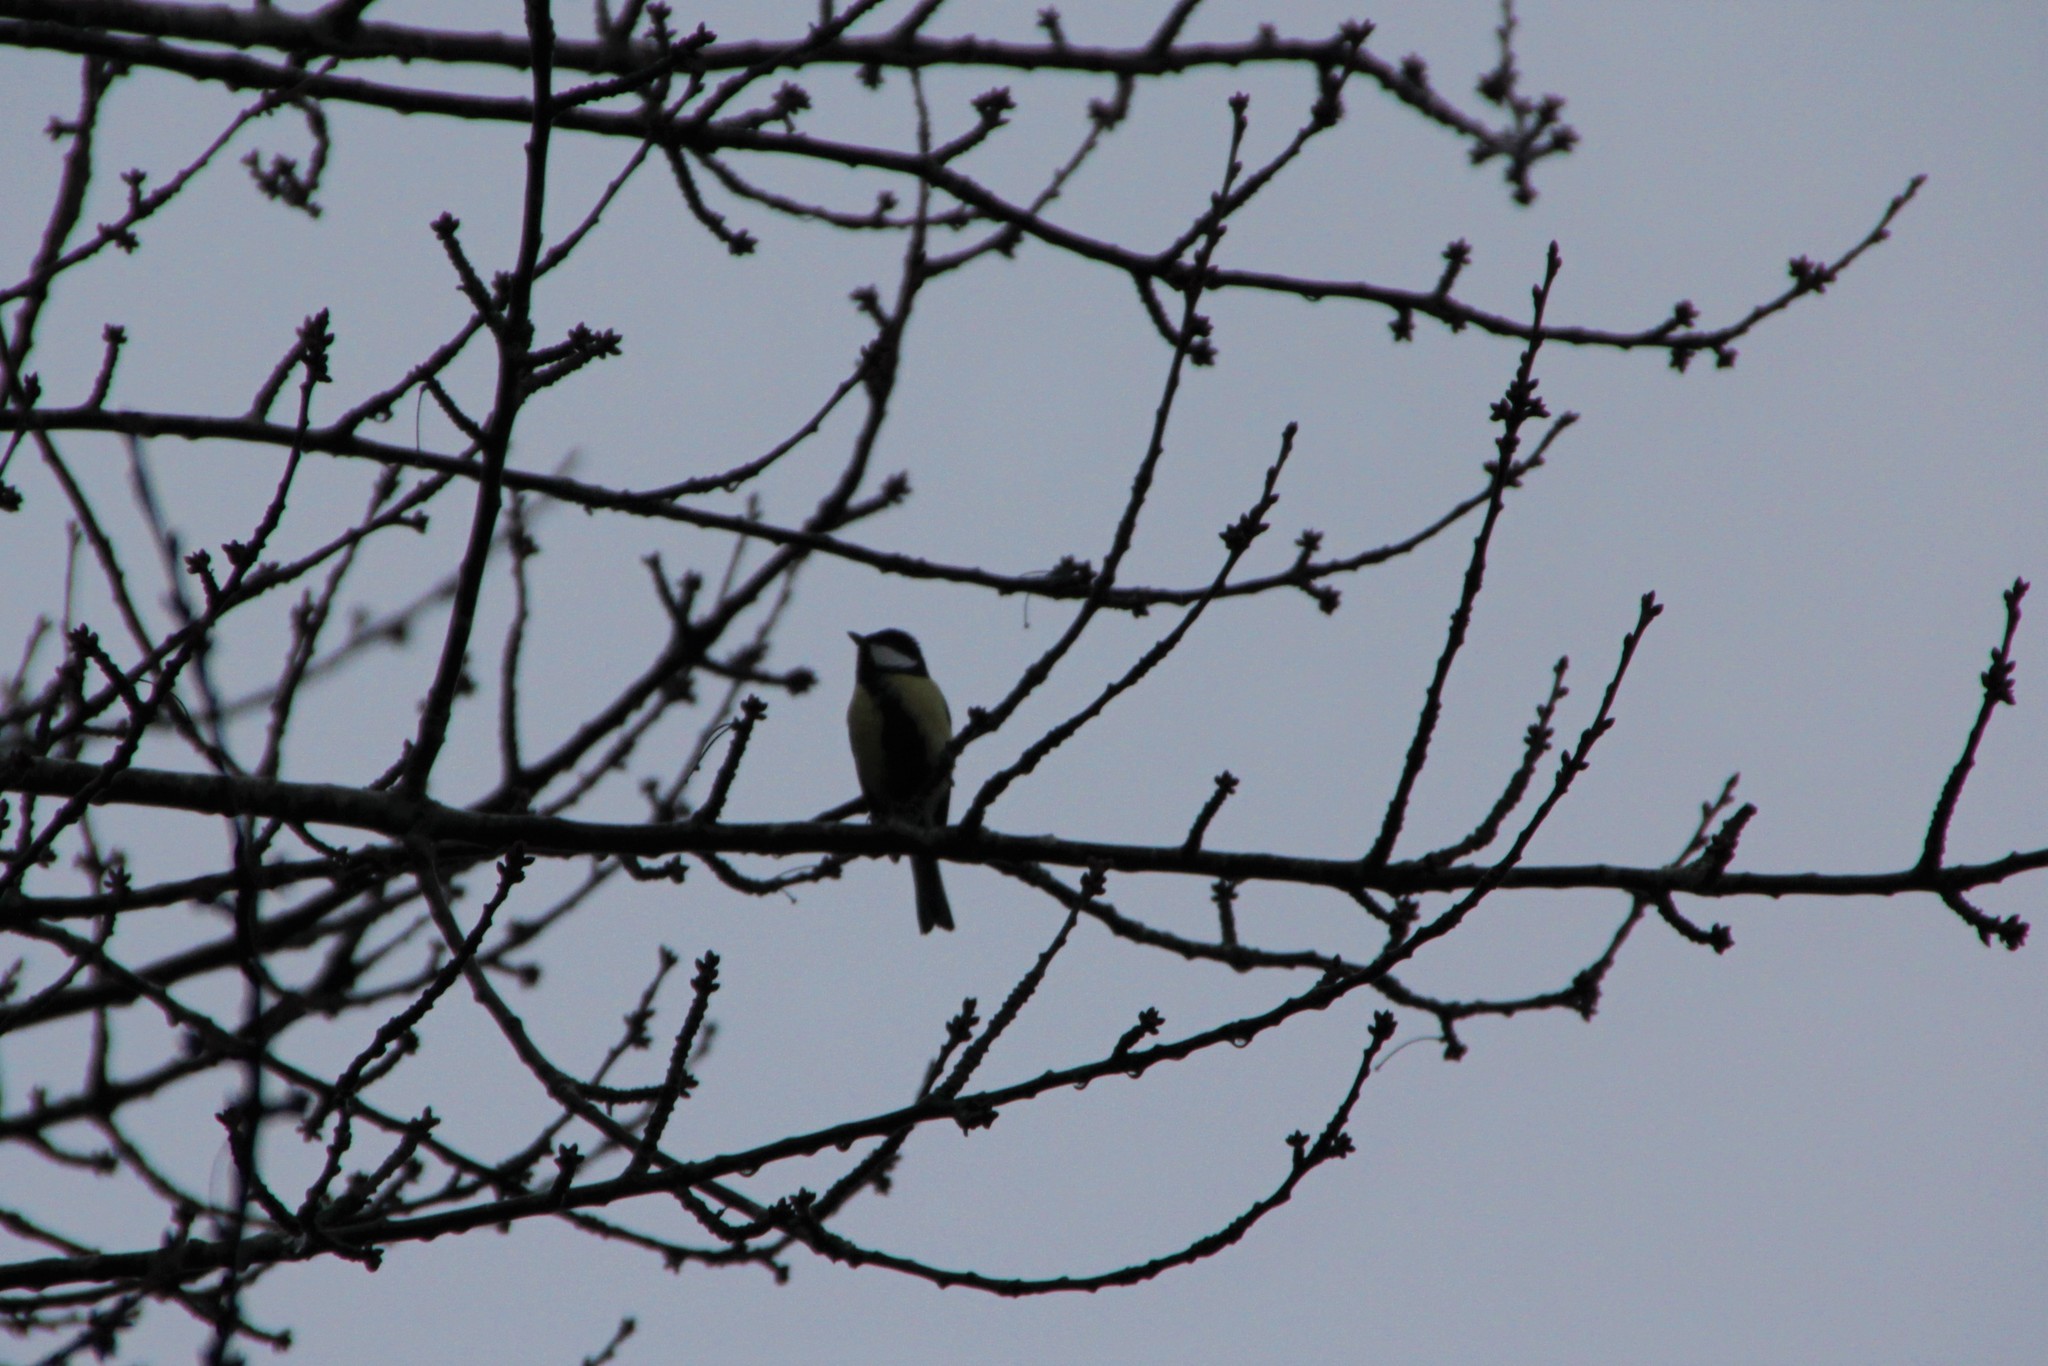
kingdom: Animalia
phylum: Chordata
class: Aves
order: Passeriformes
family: Paridae
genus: Parus
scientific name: Parus major
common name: Great tit
